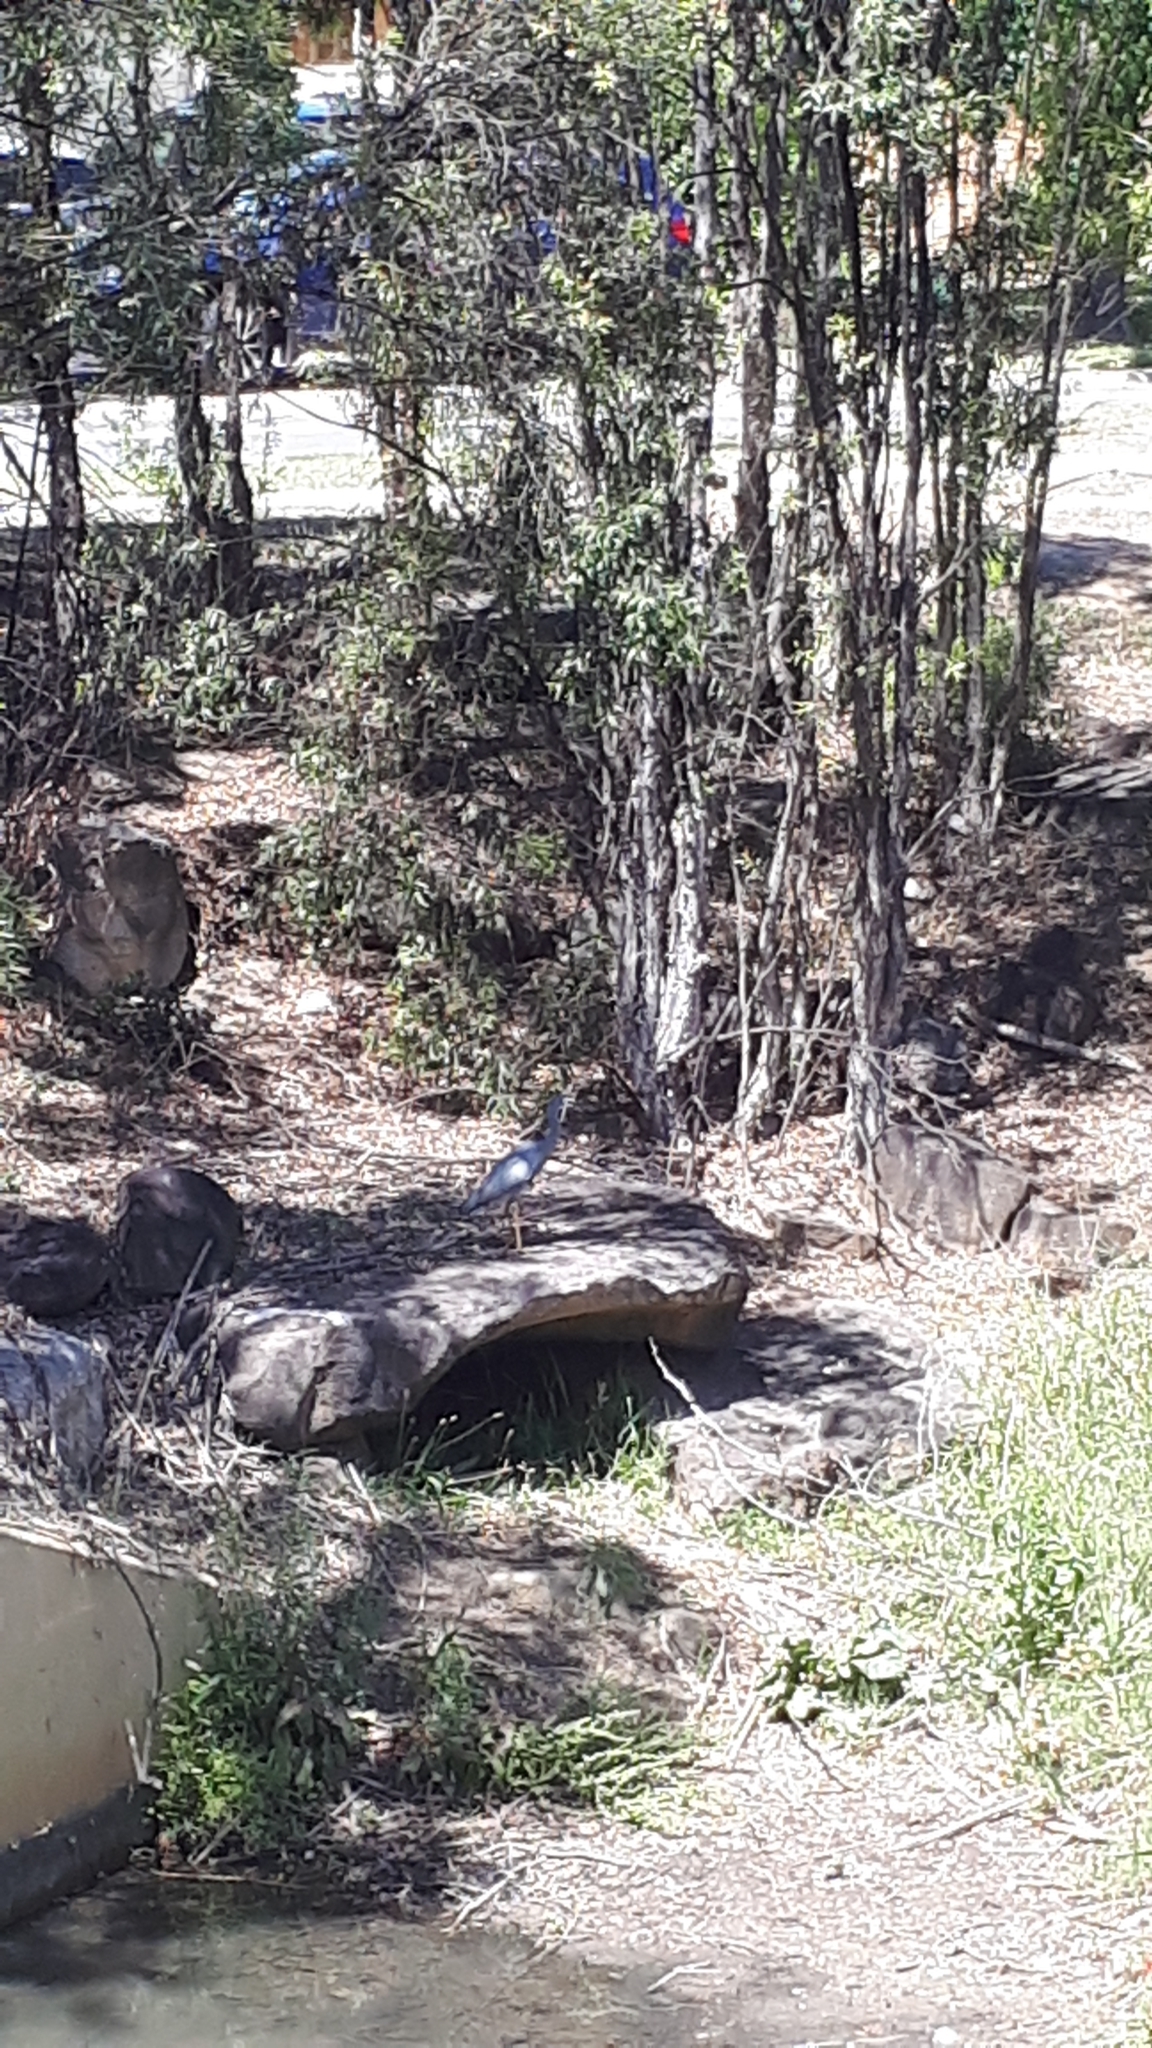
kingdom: Animalia
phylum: Chordata
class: Aves
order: Pelecaniformes
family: Ardeidae
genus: Egretta
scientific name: Egretta novaehollandiae
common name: White-faced heron
